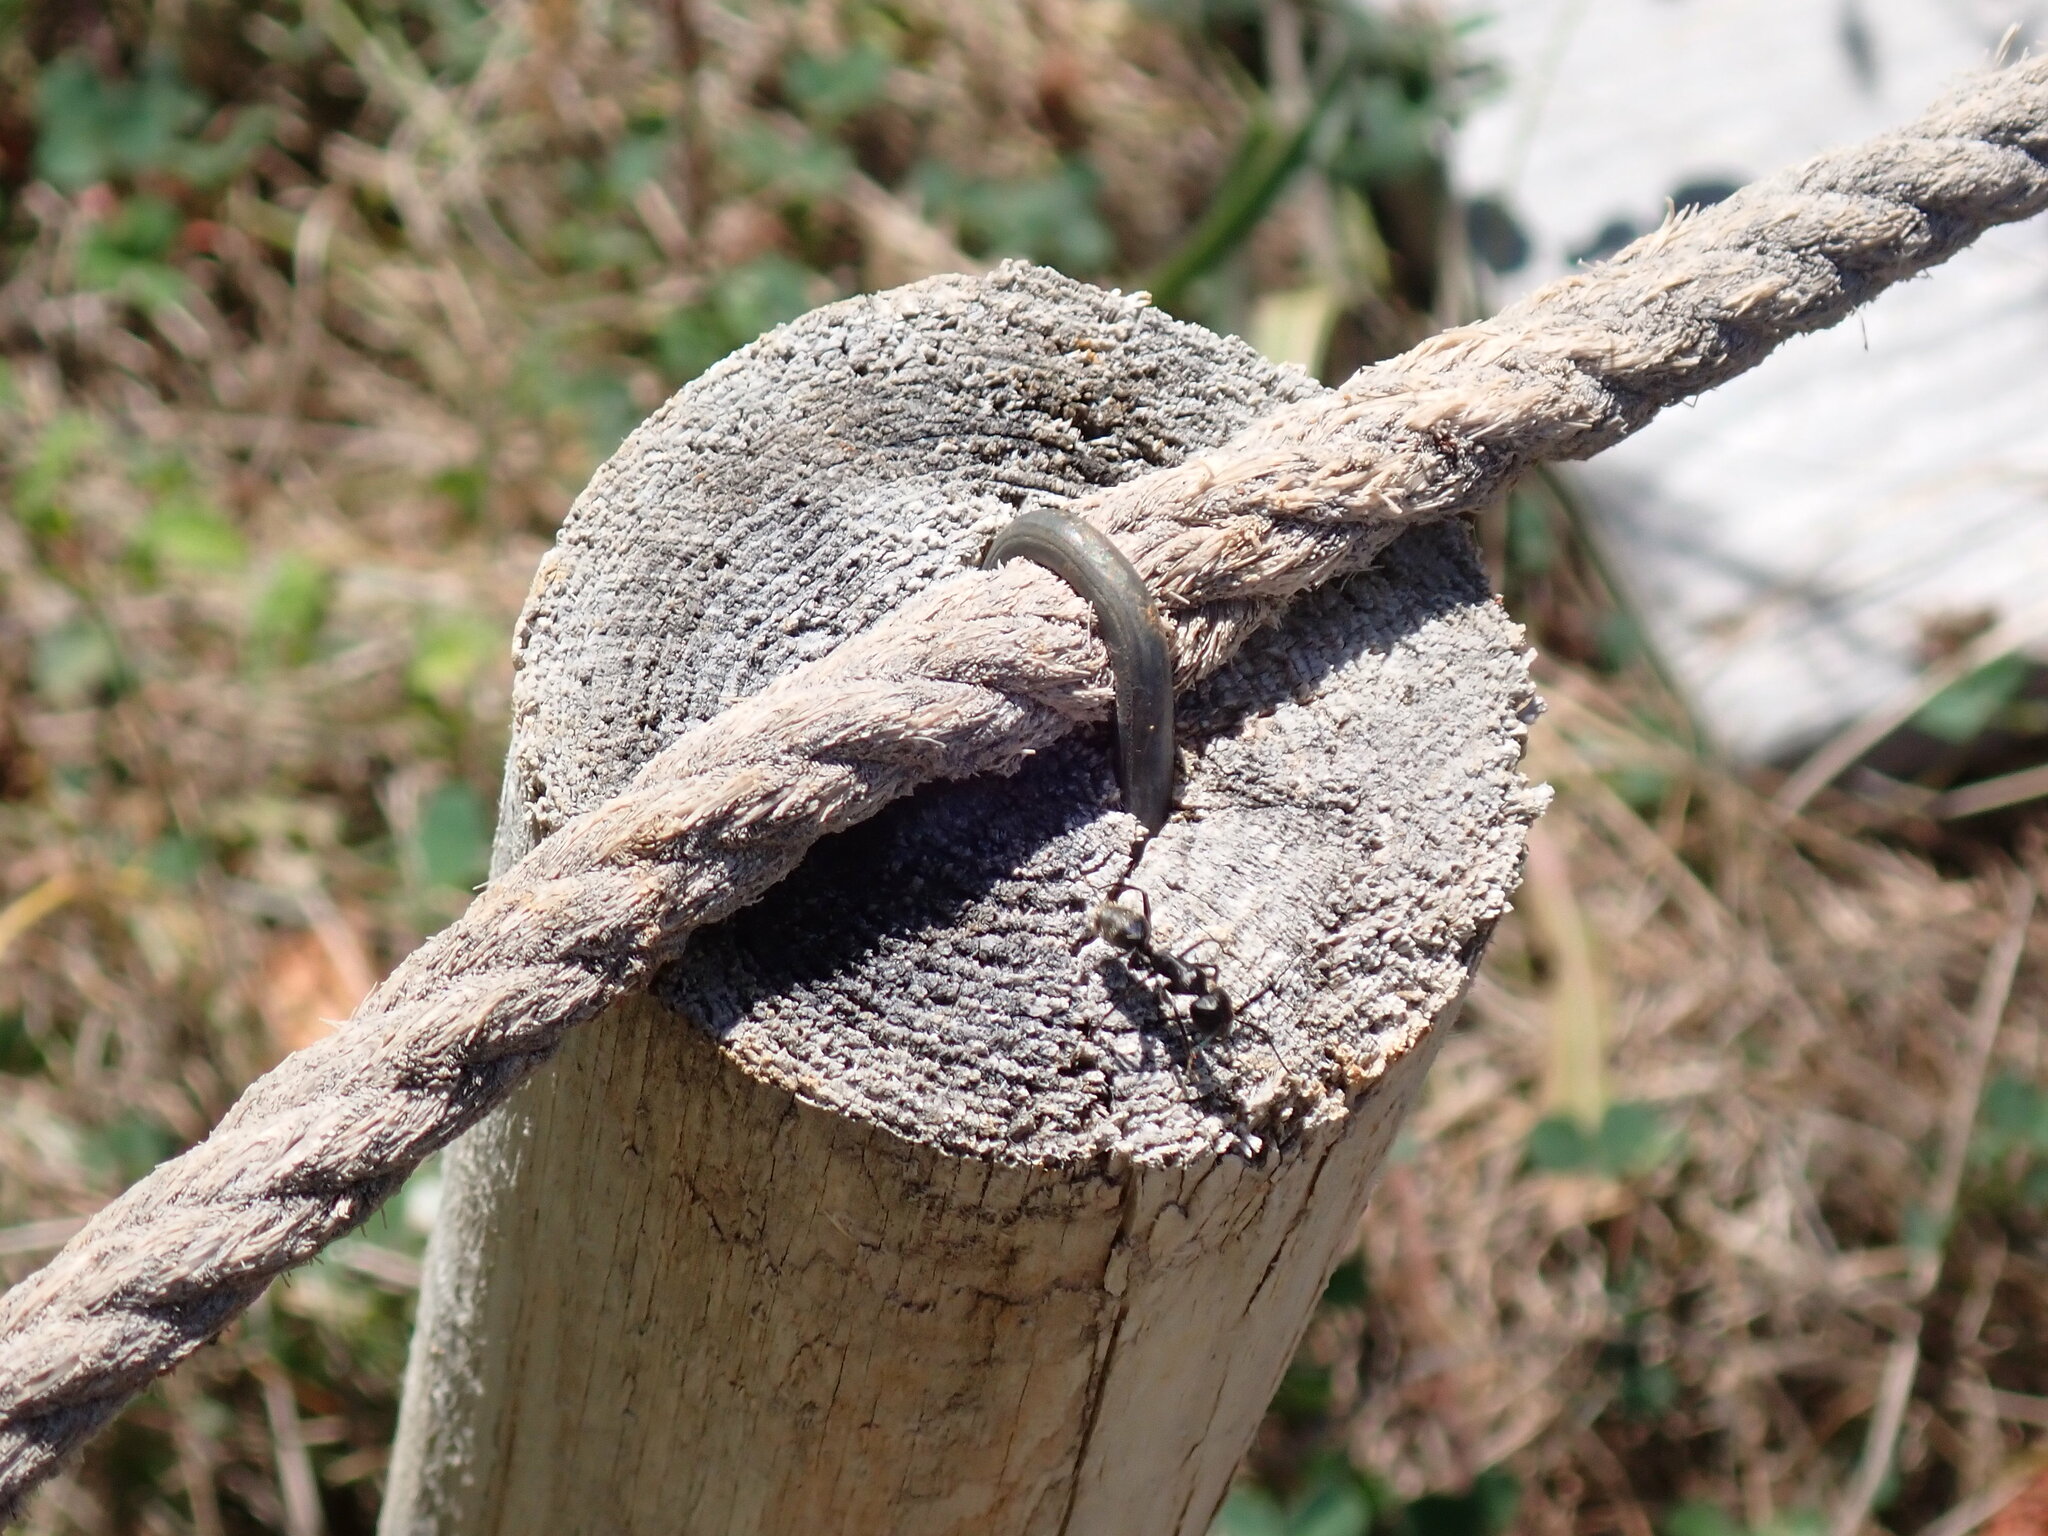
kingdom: Animalia
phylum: Arthropoda
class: Insecta
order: Hymenoptera
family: Formicidae
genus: Camponotus
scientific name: Camponotus vagus
